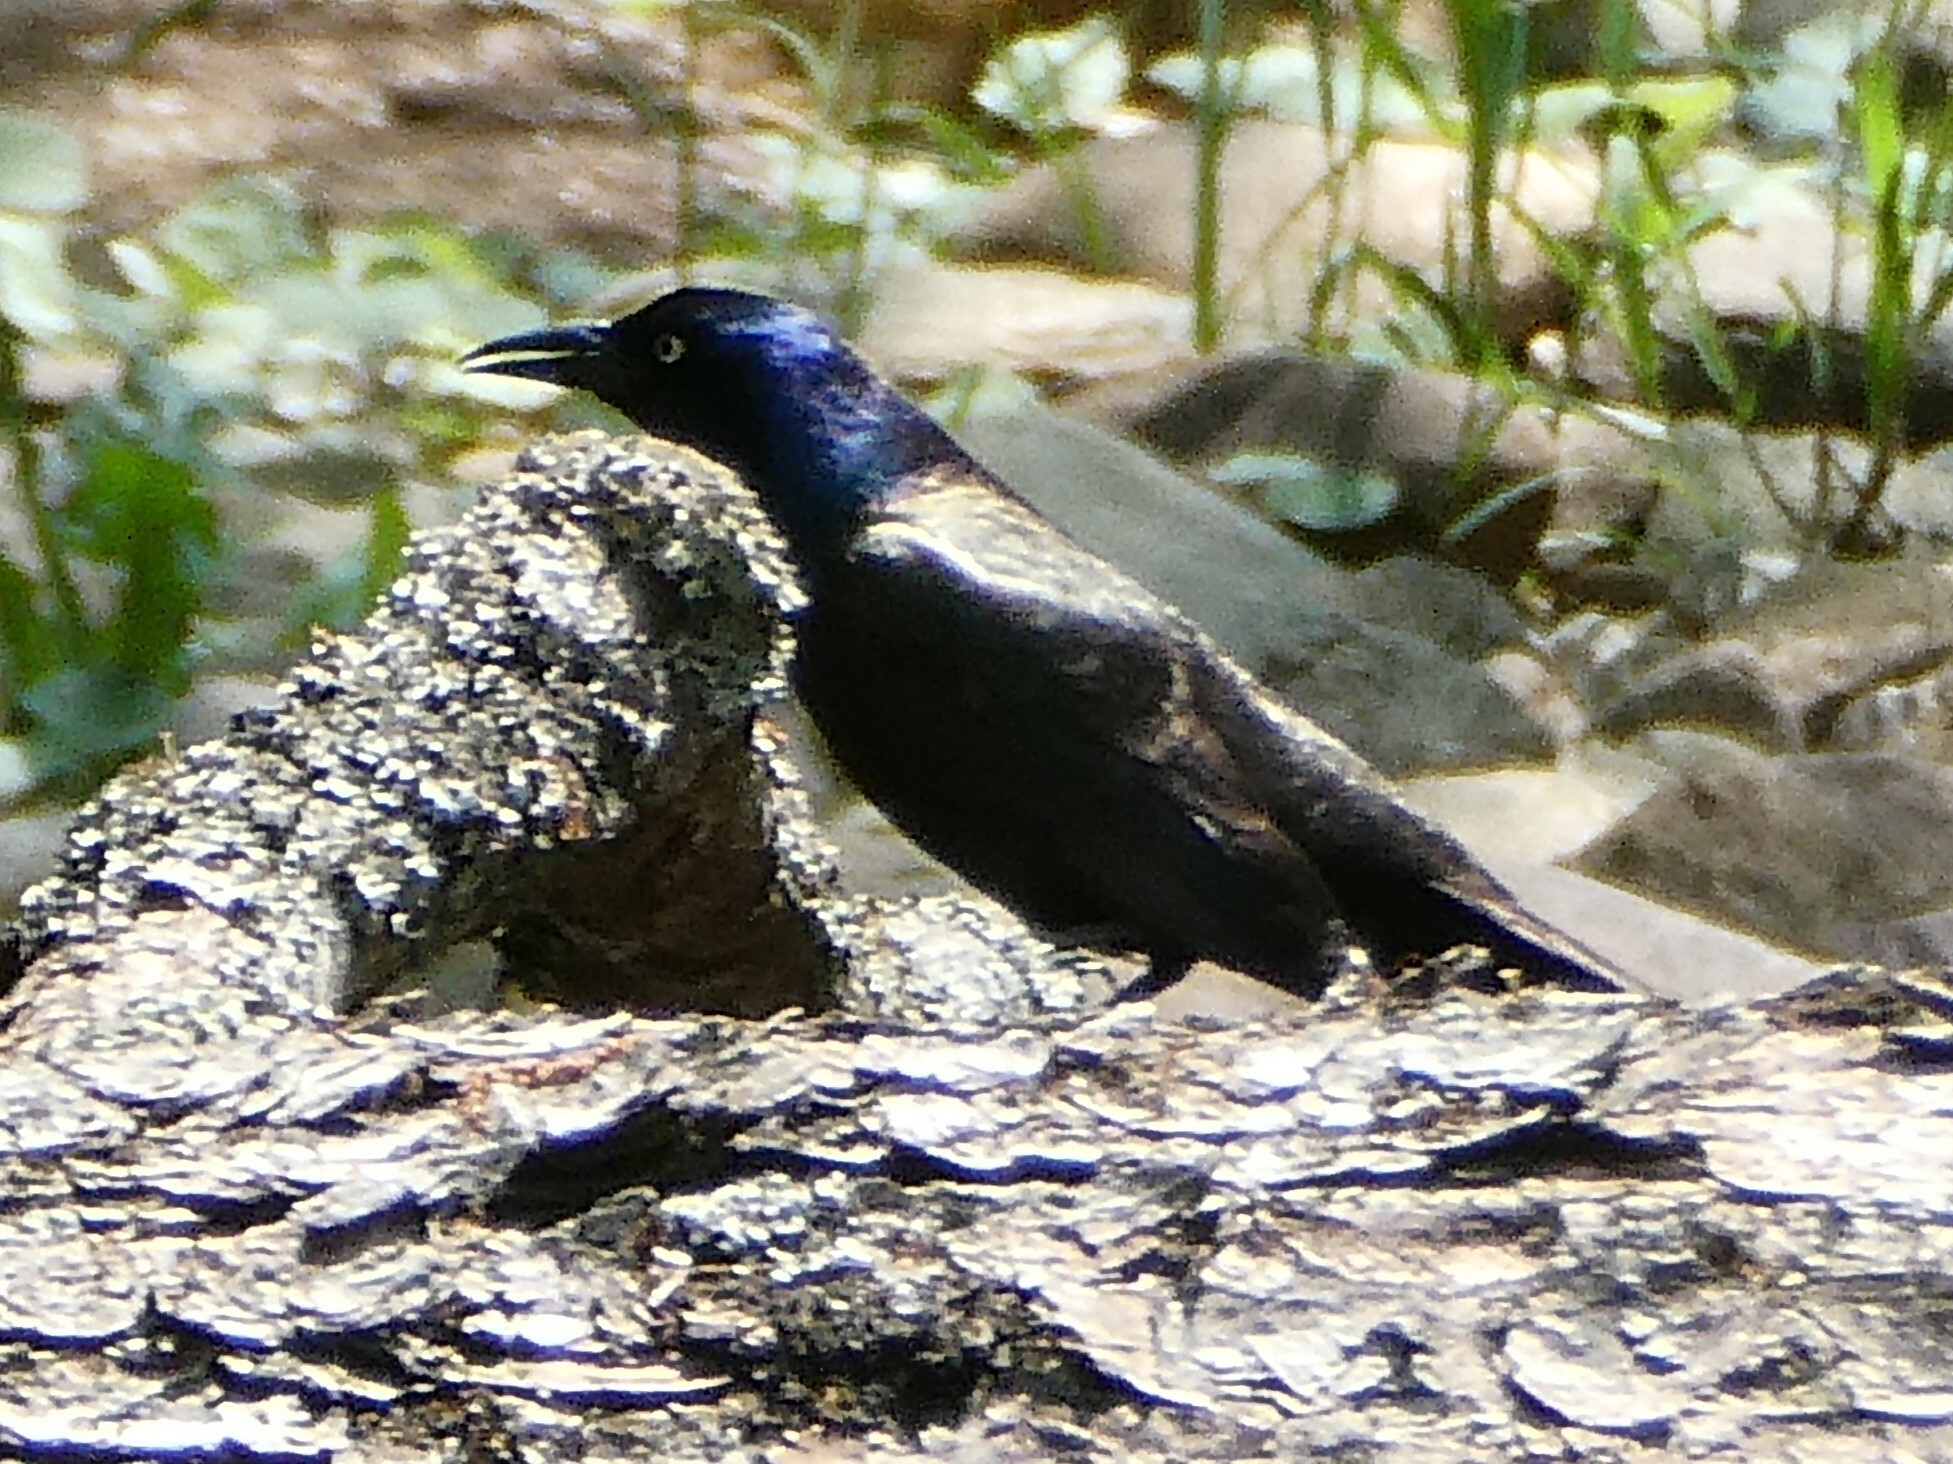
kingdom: Animalia
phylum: Chordata
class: Aves
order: Passeriformes
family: Icteridae
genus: Quiscalus
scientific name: Quiscalus quiscula
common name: Common grackle
